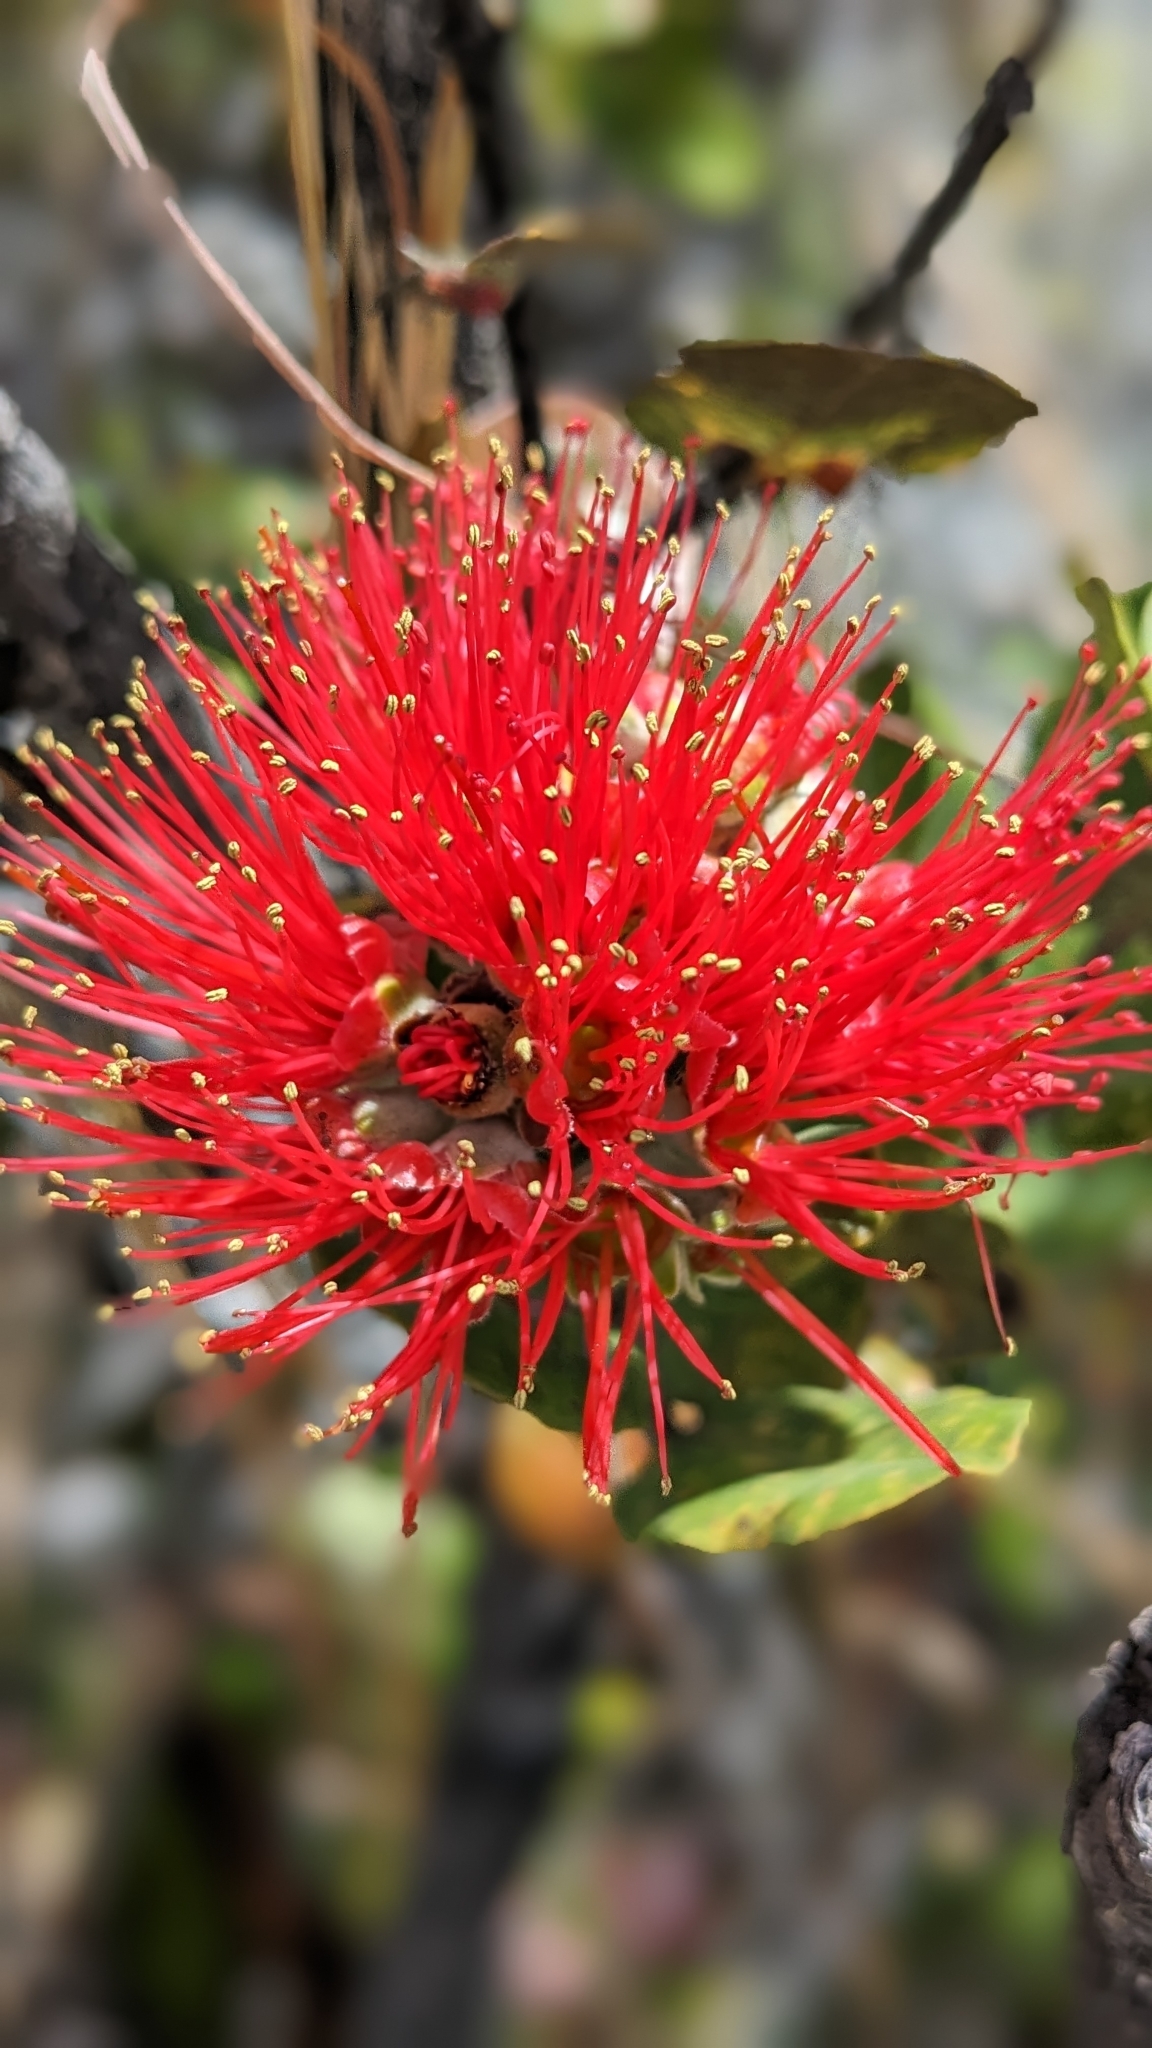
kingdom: Plantae
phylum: Tracheophyta
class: Magnoliopsida
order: Myrtales
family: Myrtaceae
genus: Metrosideros
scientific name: Metrosideros polymorpha
